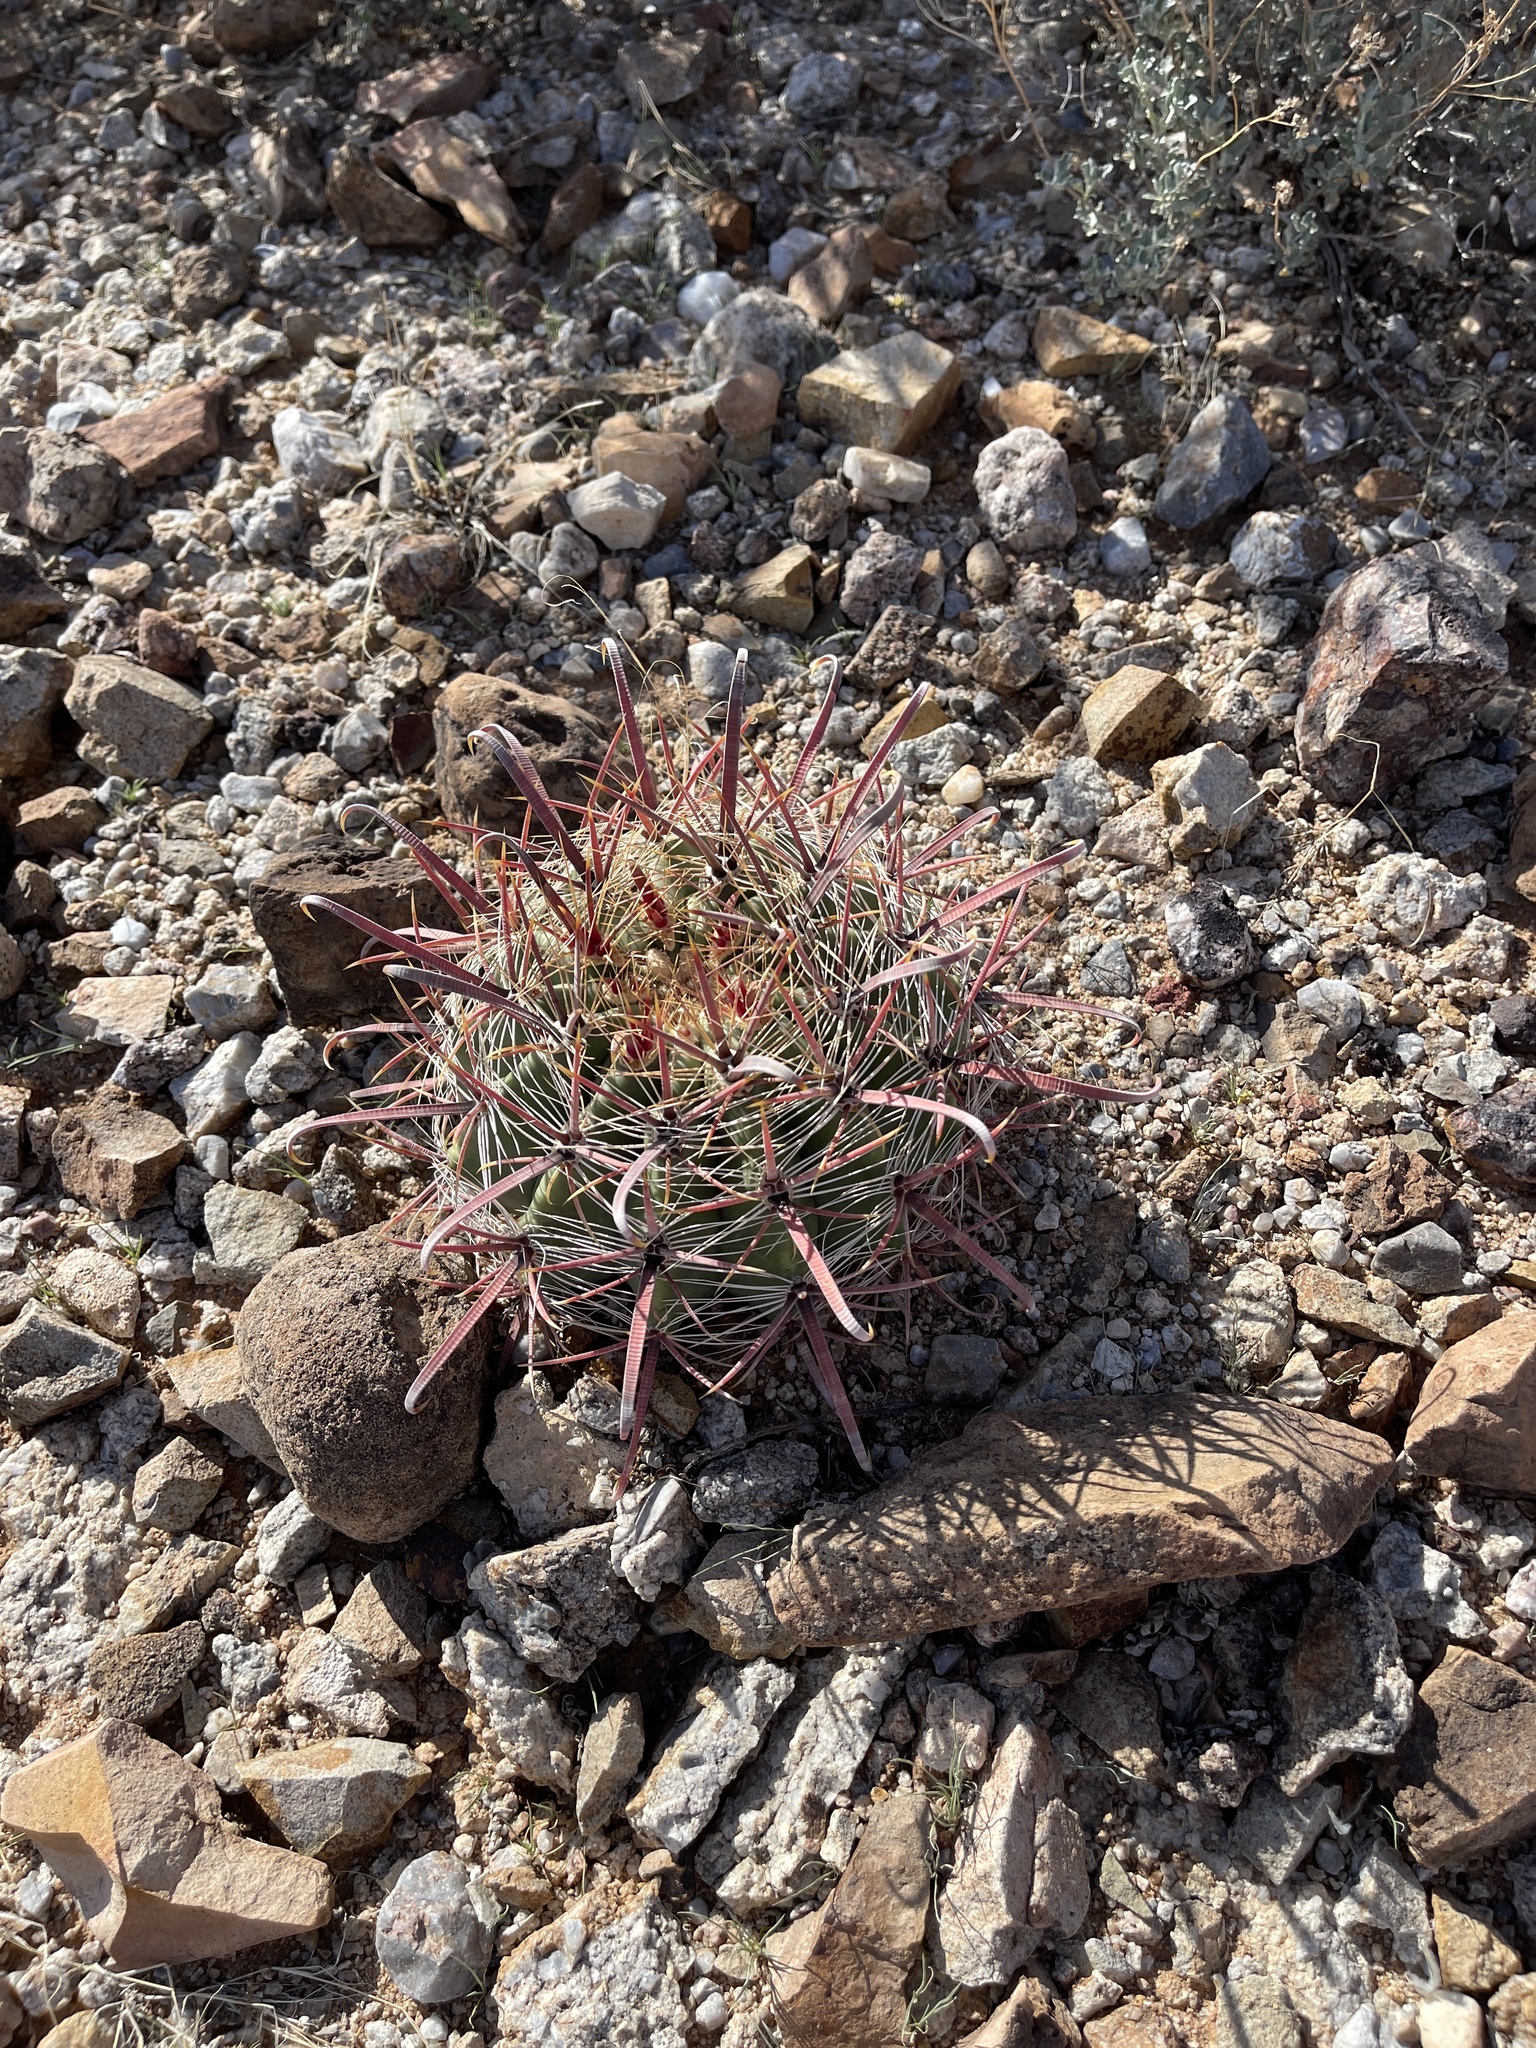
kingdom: Plantae
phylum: Tracheophyta
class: Magnoliopsida
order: Caryophyllales
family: Cactaceae
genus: Ferocactus
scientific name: Ferocactus wislizeni
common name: Candy barrel cactus
